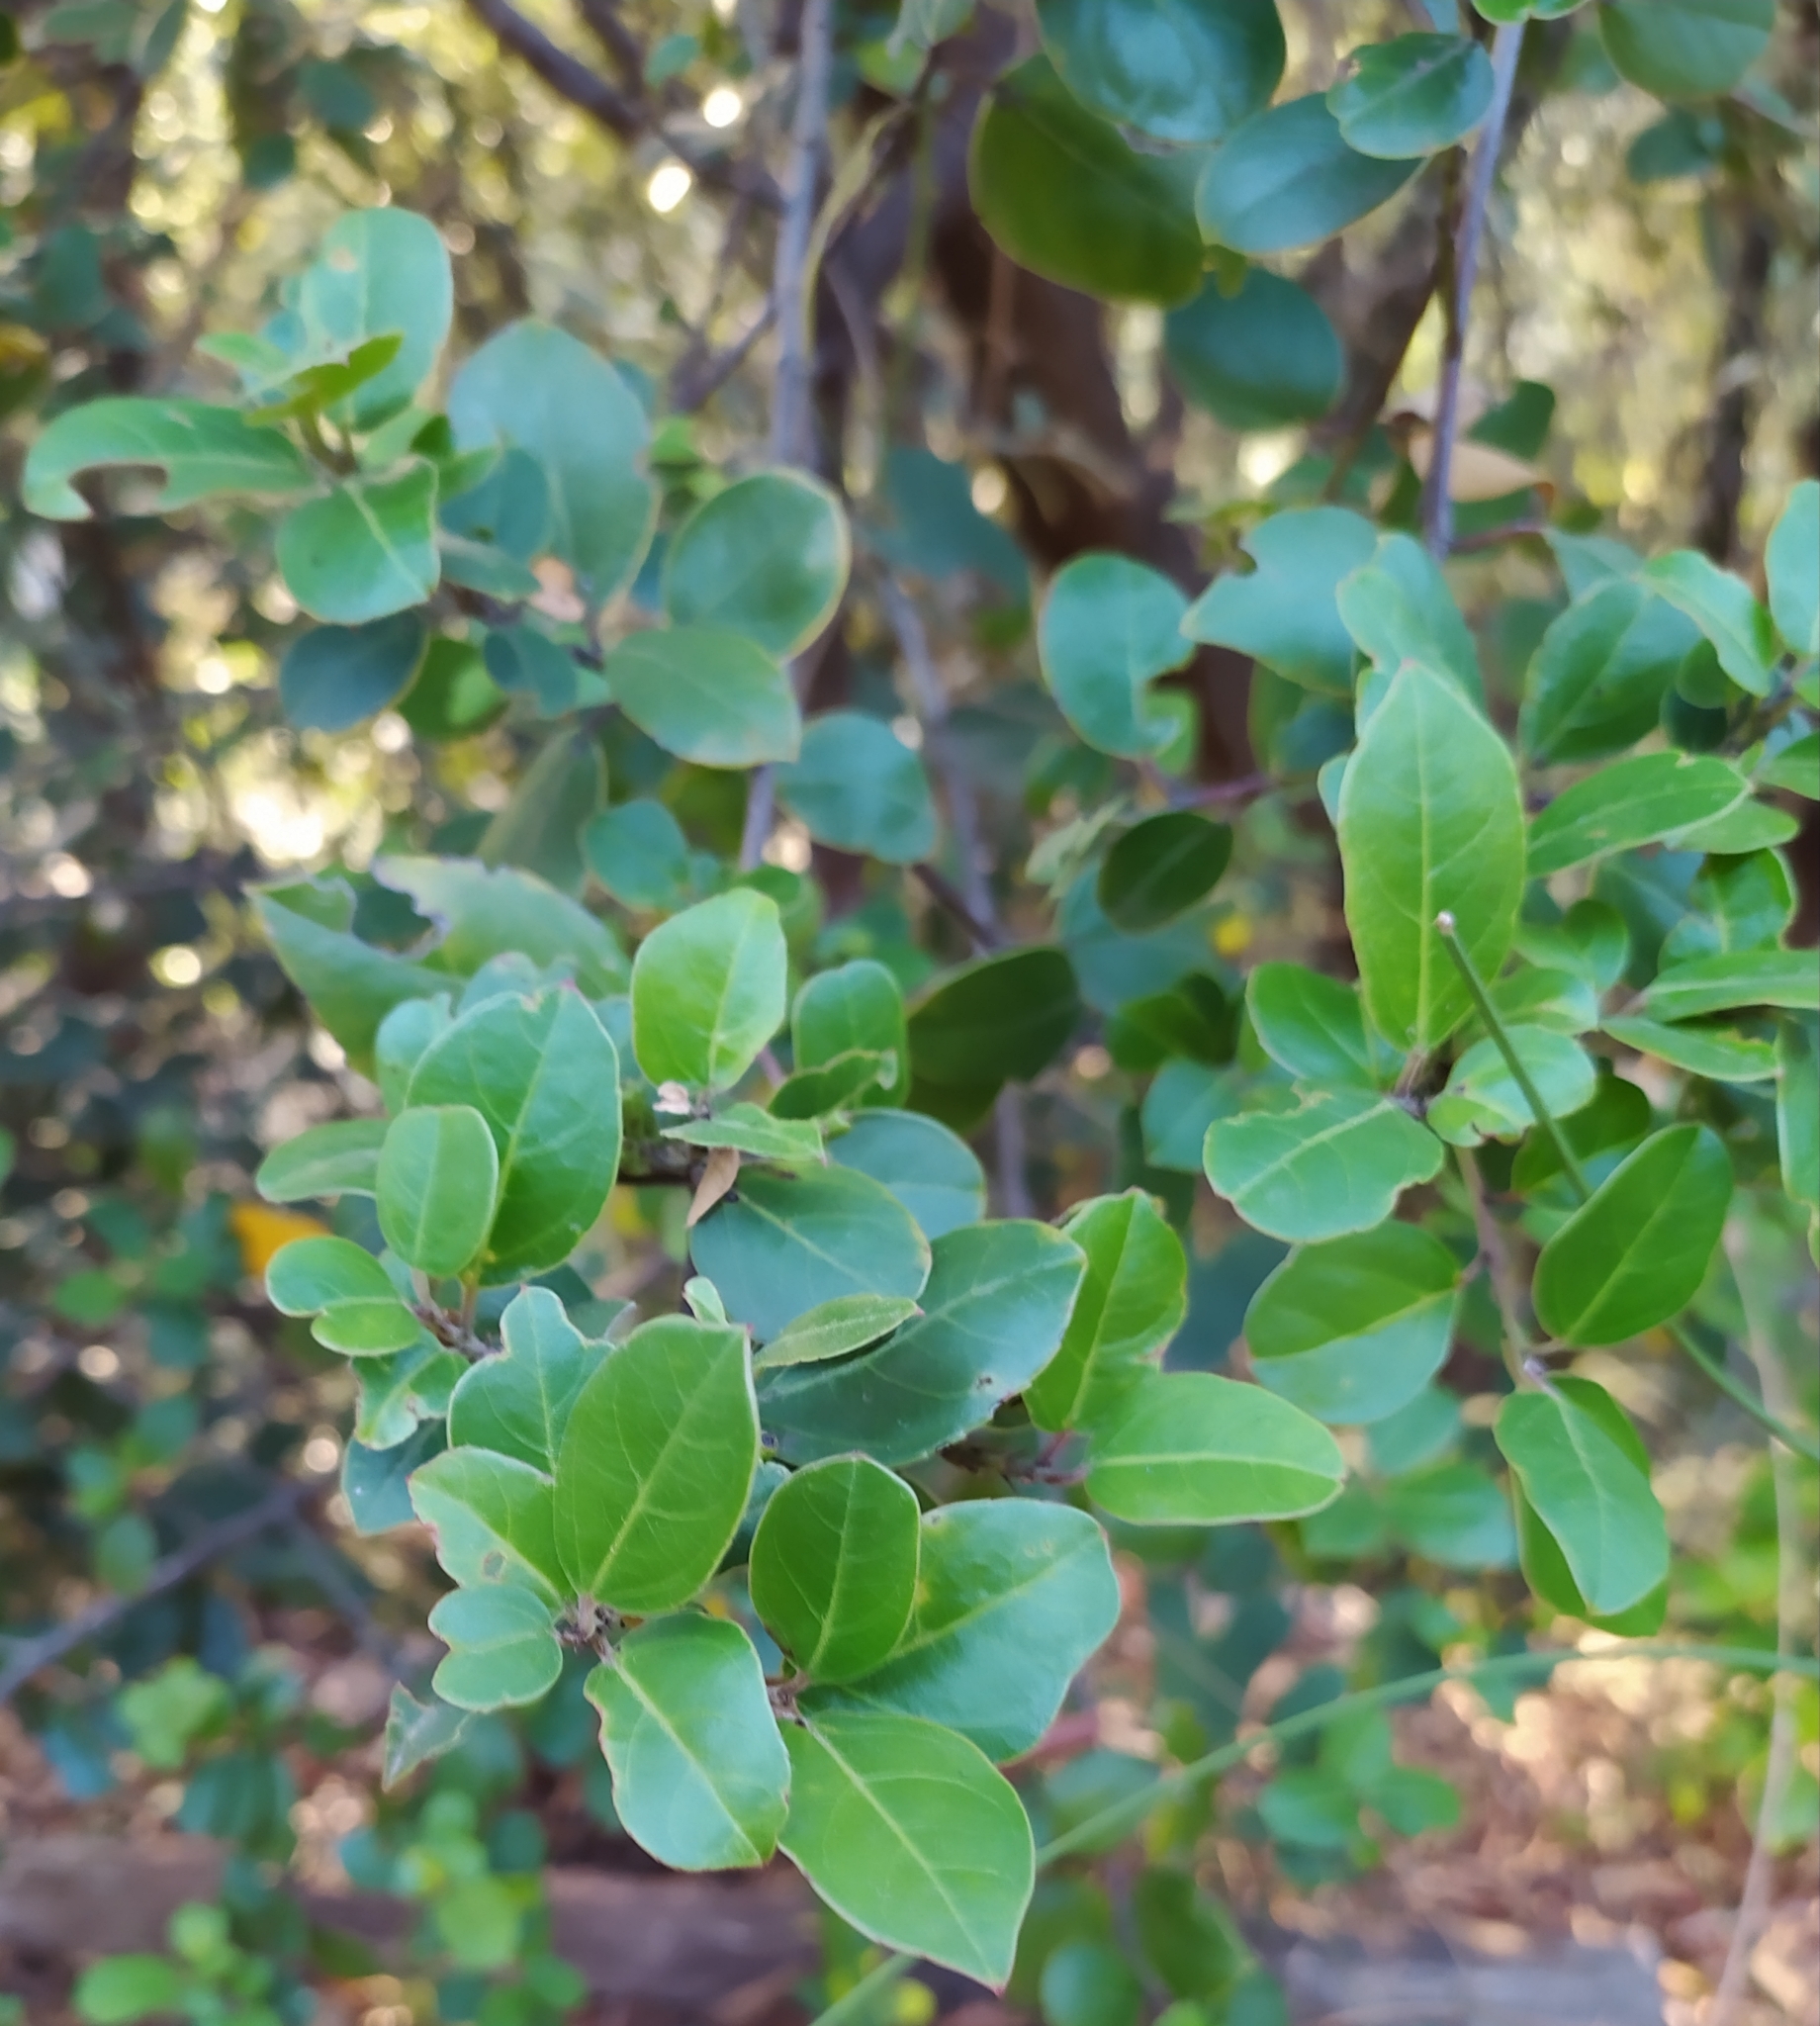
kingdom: Plantae
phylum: Tracheophyta
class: Magnoliopsida
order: Rosales
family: Rhamnaceae
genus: Rhamnus
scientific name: Rhamnus alaternus
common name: Mediterranean buckthorn
